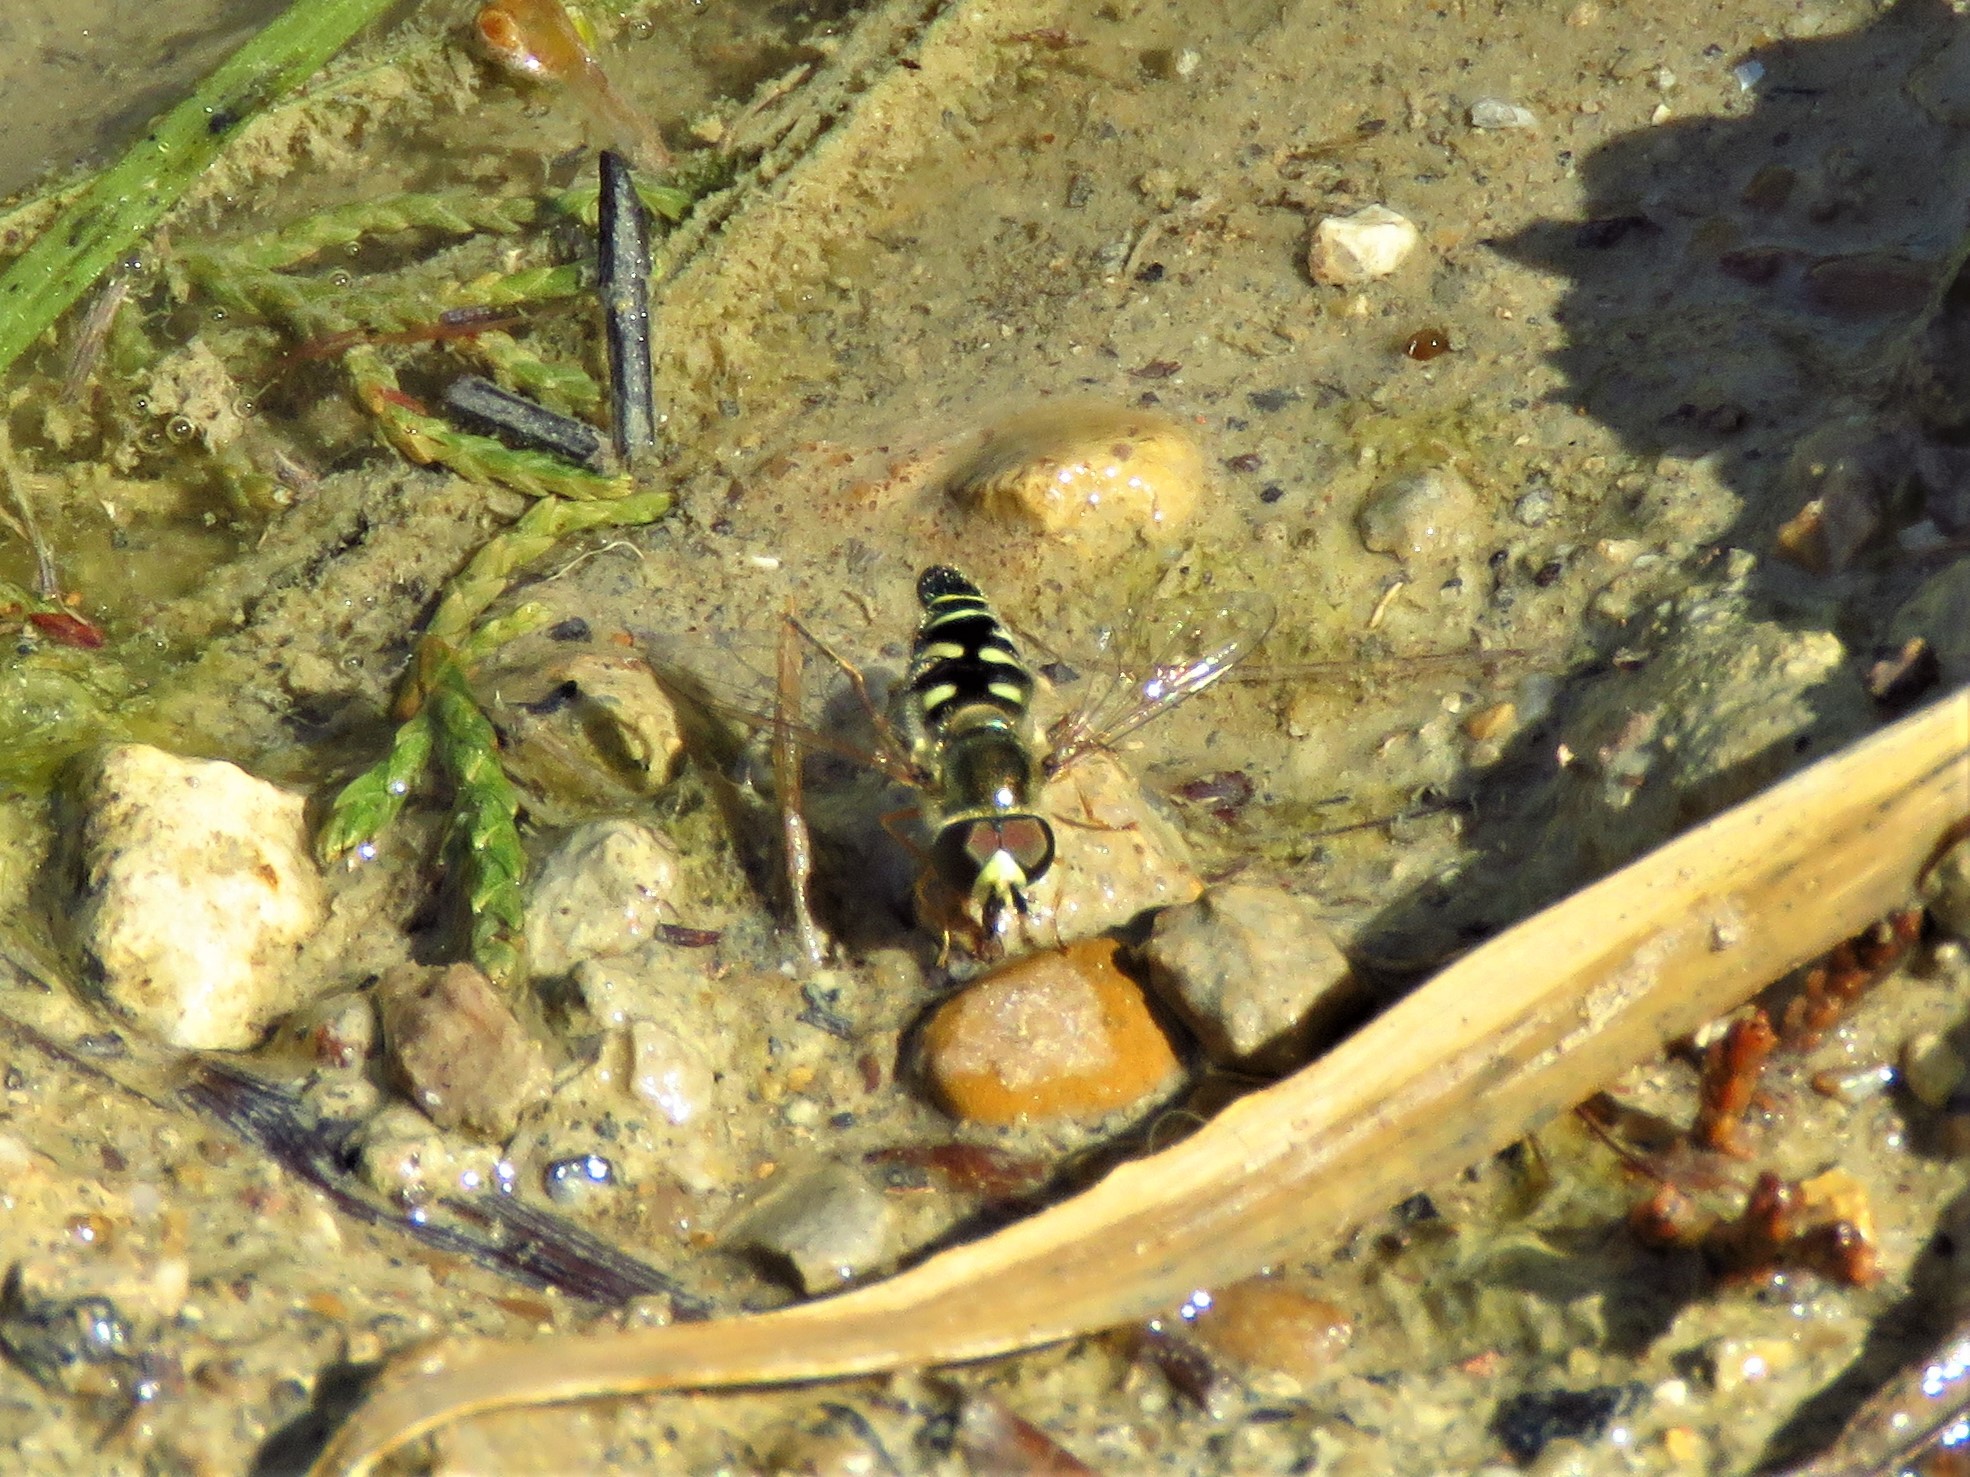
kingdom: Animalia
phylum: Arthropoda
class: Insecta
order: Diptera
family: Syrphidae
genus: Eupeodes
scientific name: Eupeodes volucris
